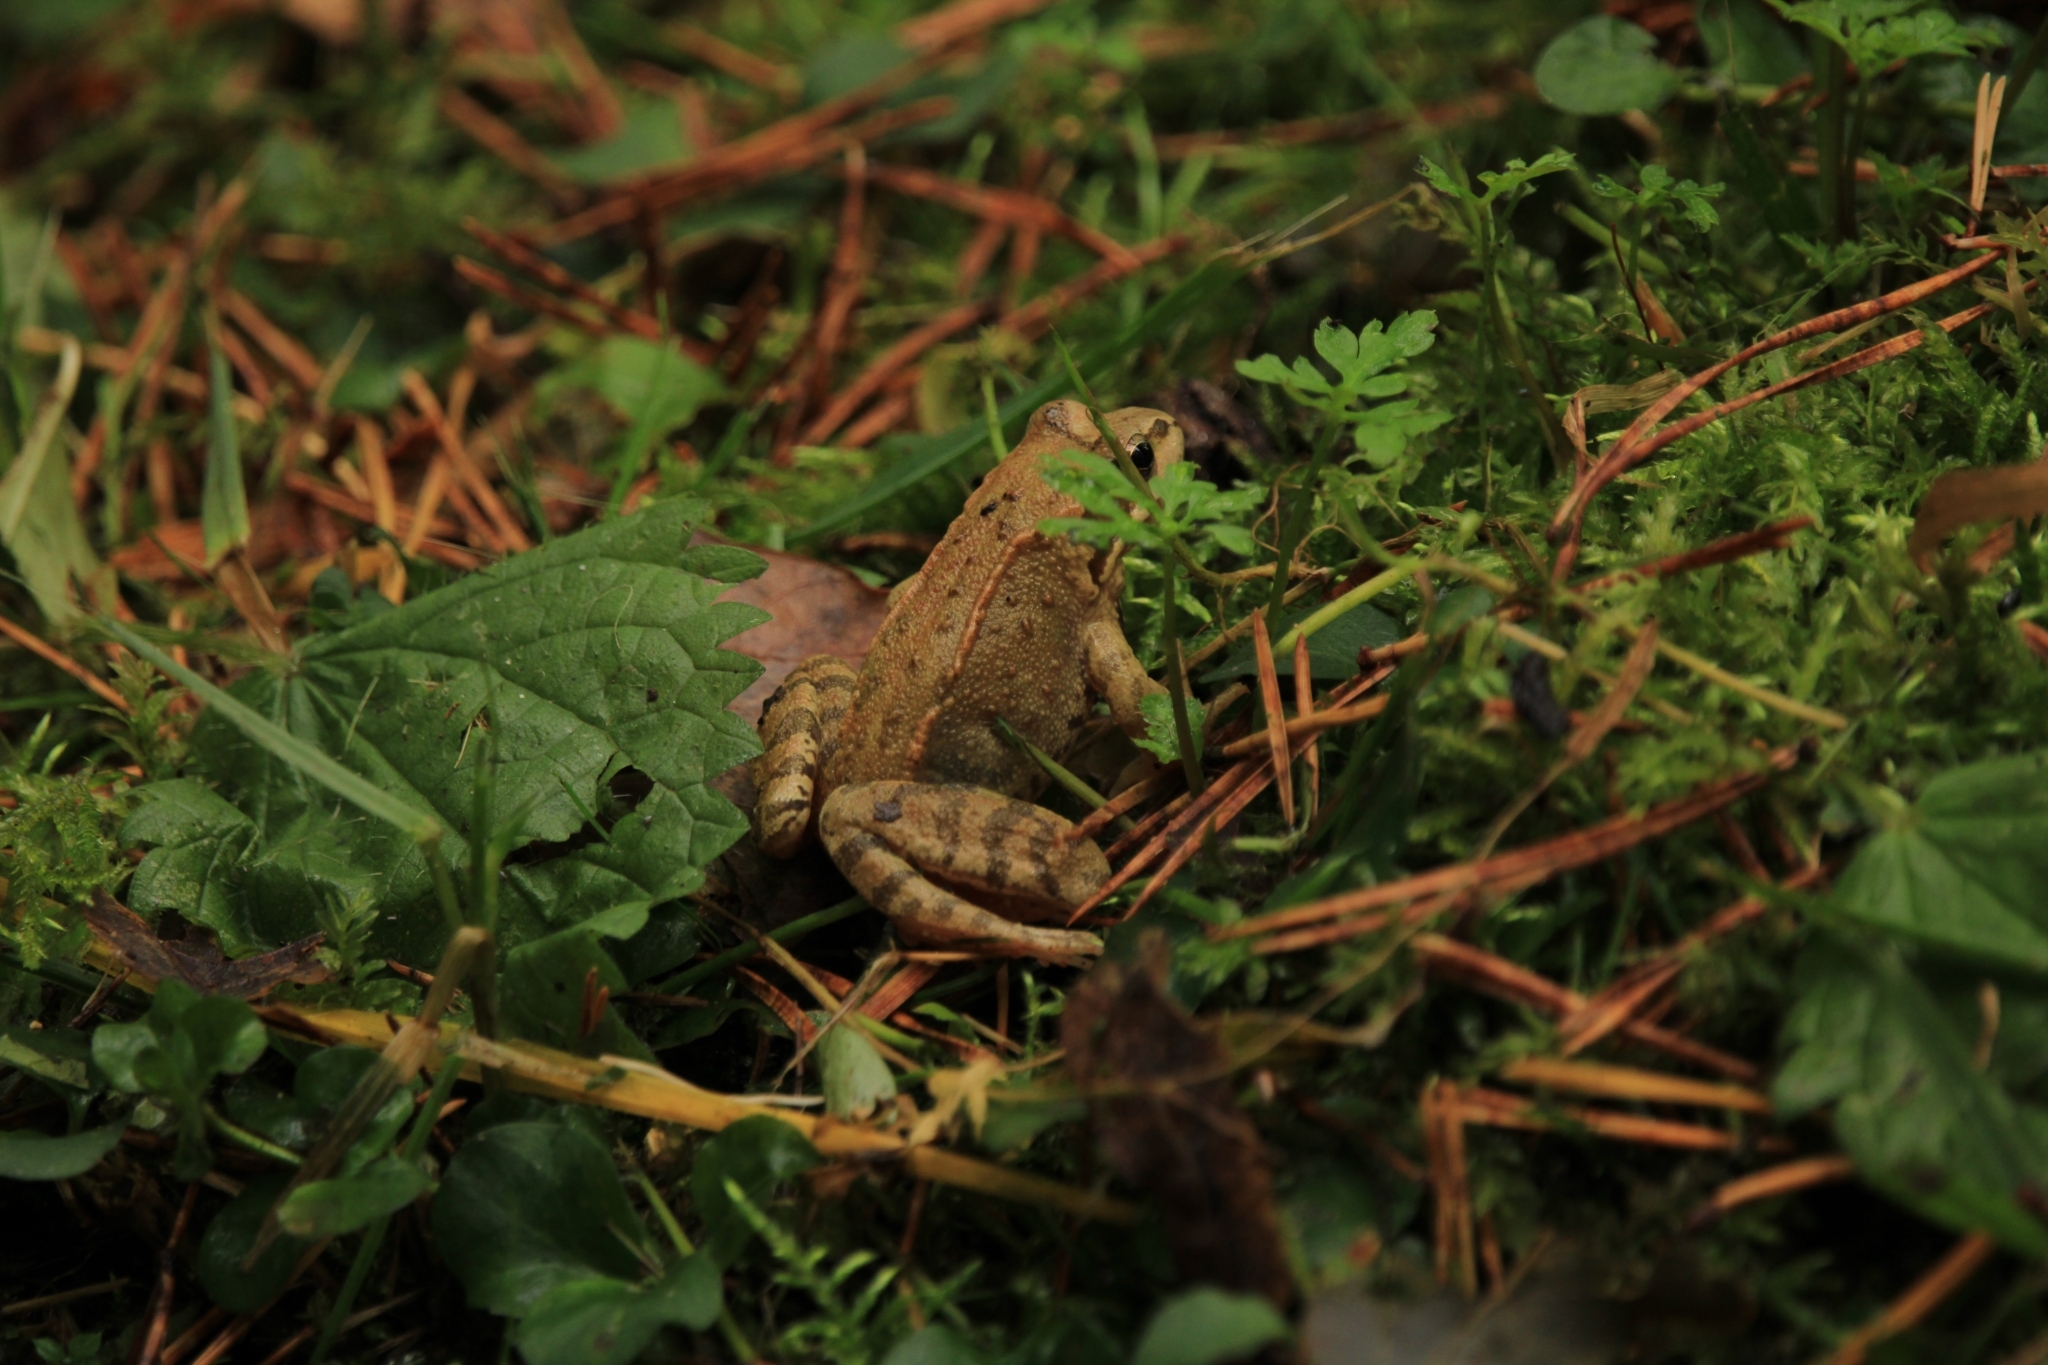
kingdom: Animalia
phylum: Chordata
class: Amphibia
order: Anura
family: Ranidae
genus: Rana
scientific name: Rana temporaria
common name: Common frog
